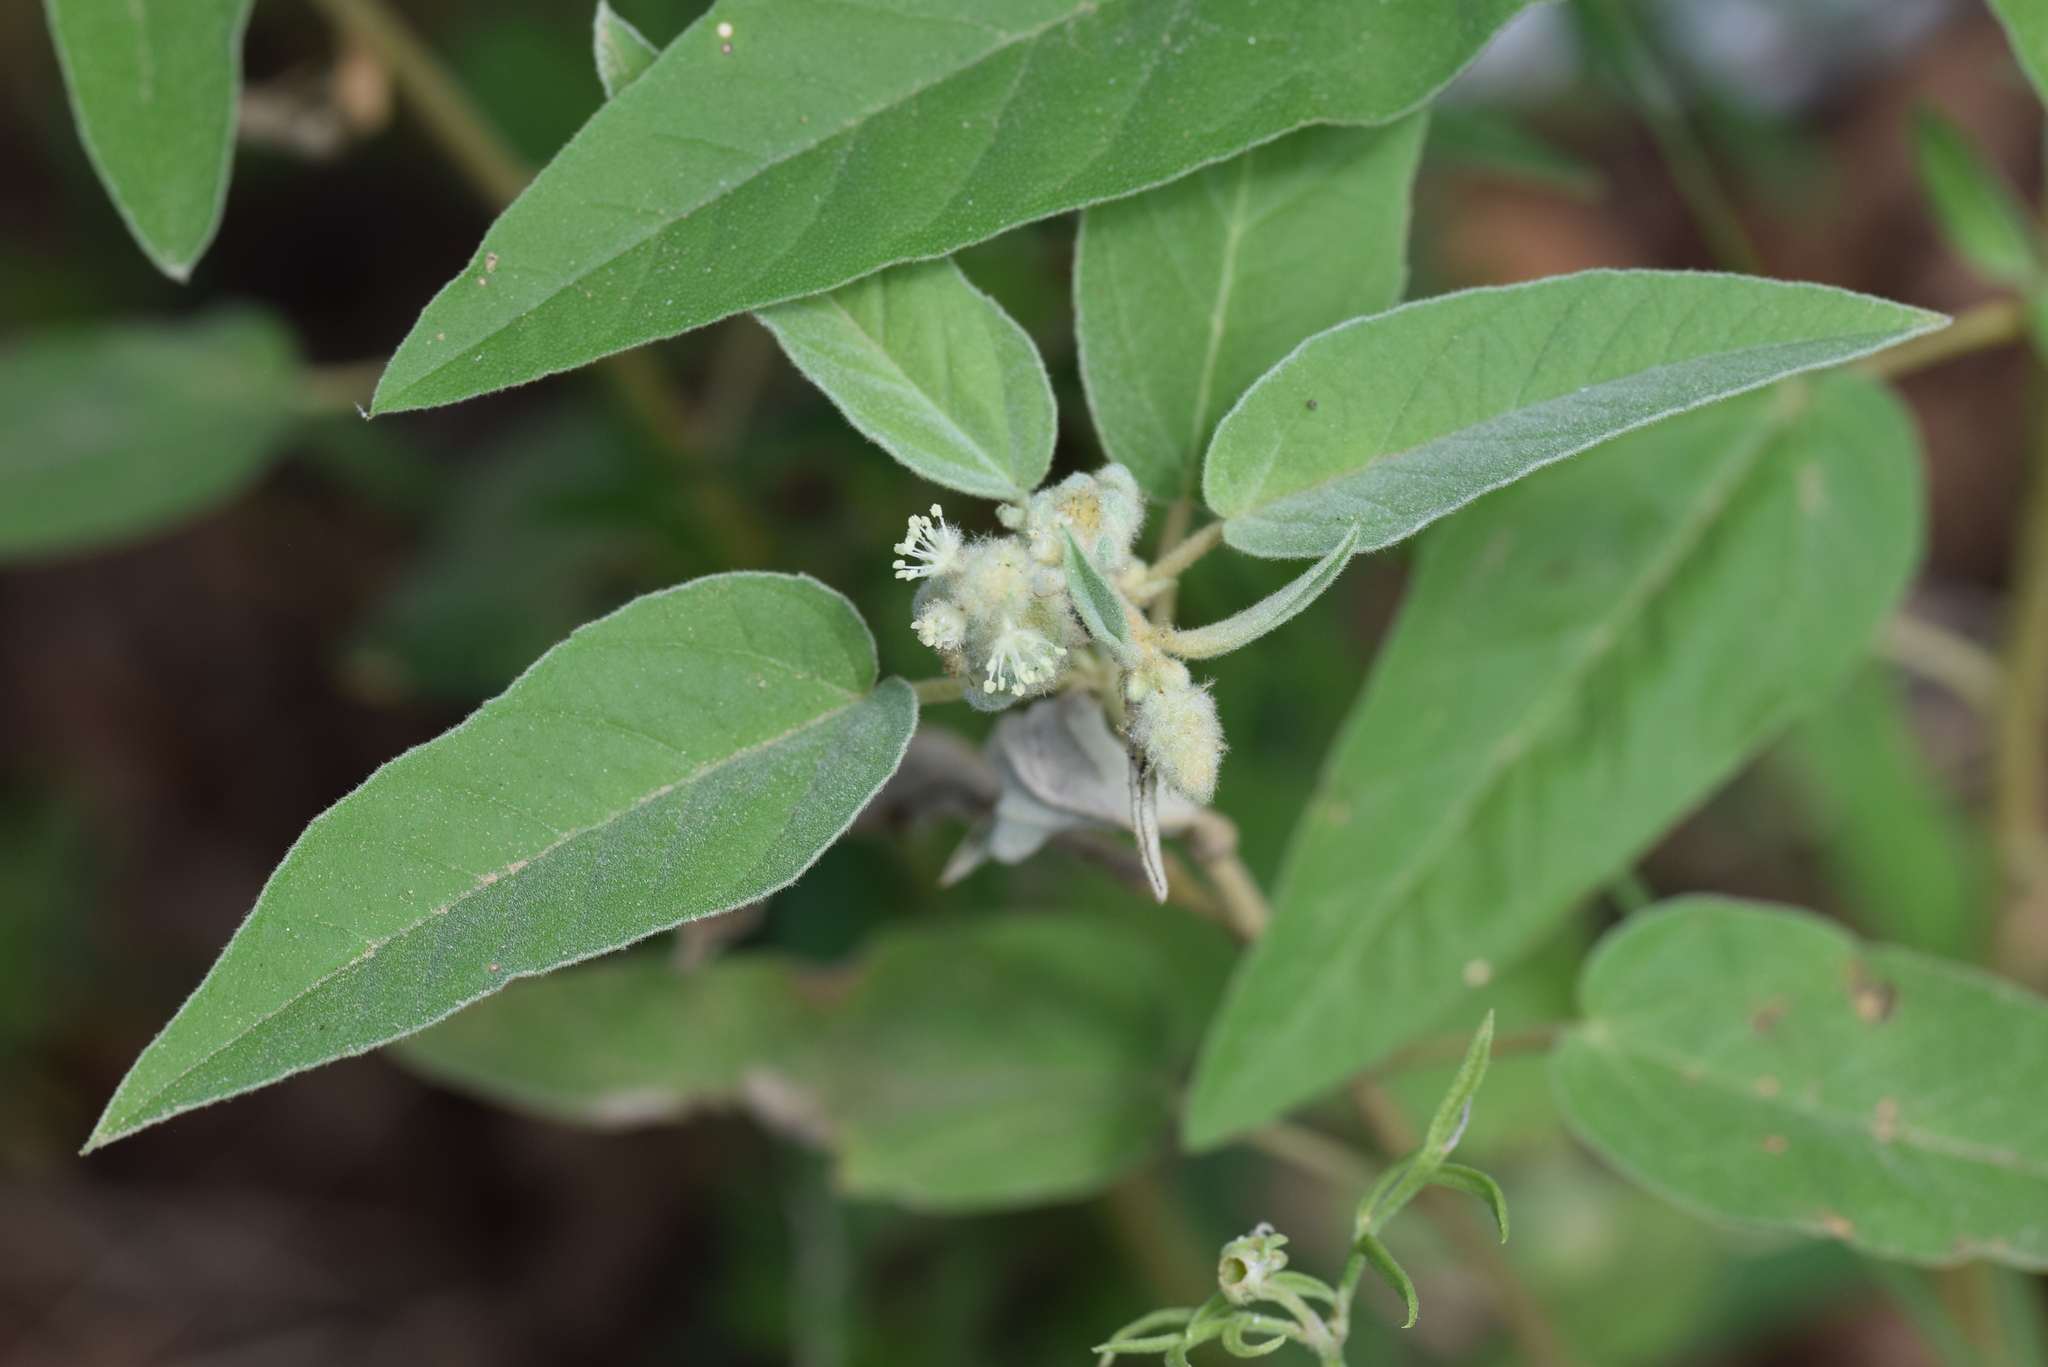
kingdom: Plantae
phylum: Tracheophyta
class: Magnoliopsida
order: Malpighiales
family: Euphorbiaceae
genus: Croton
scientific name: Croton lindheimeri
